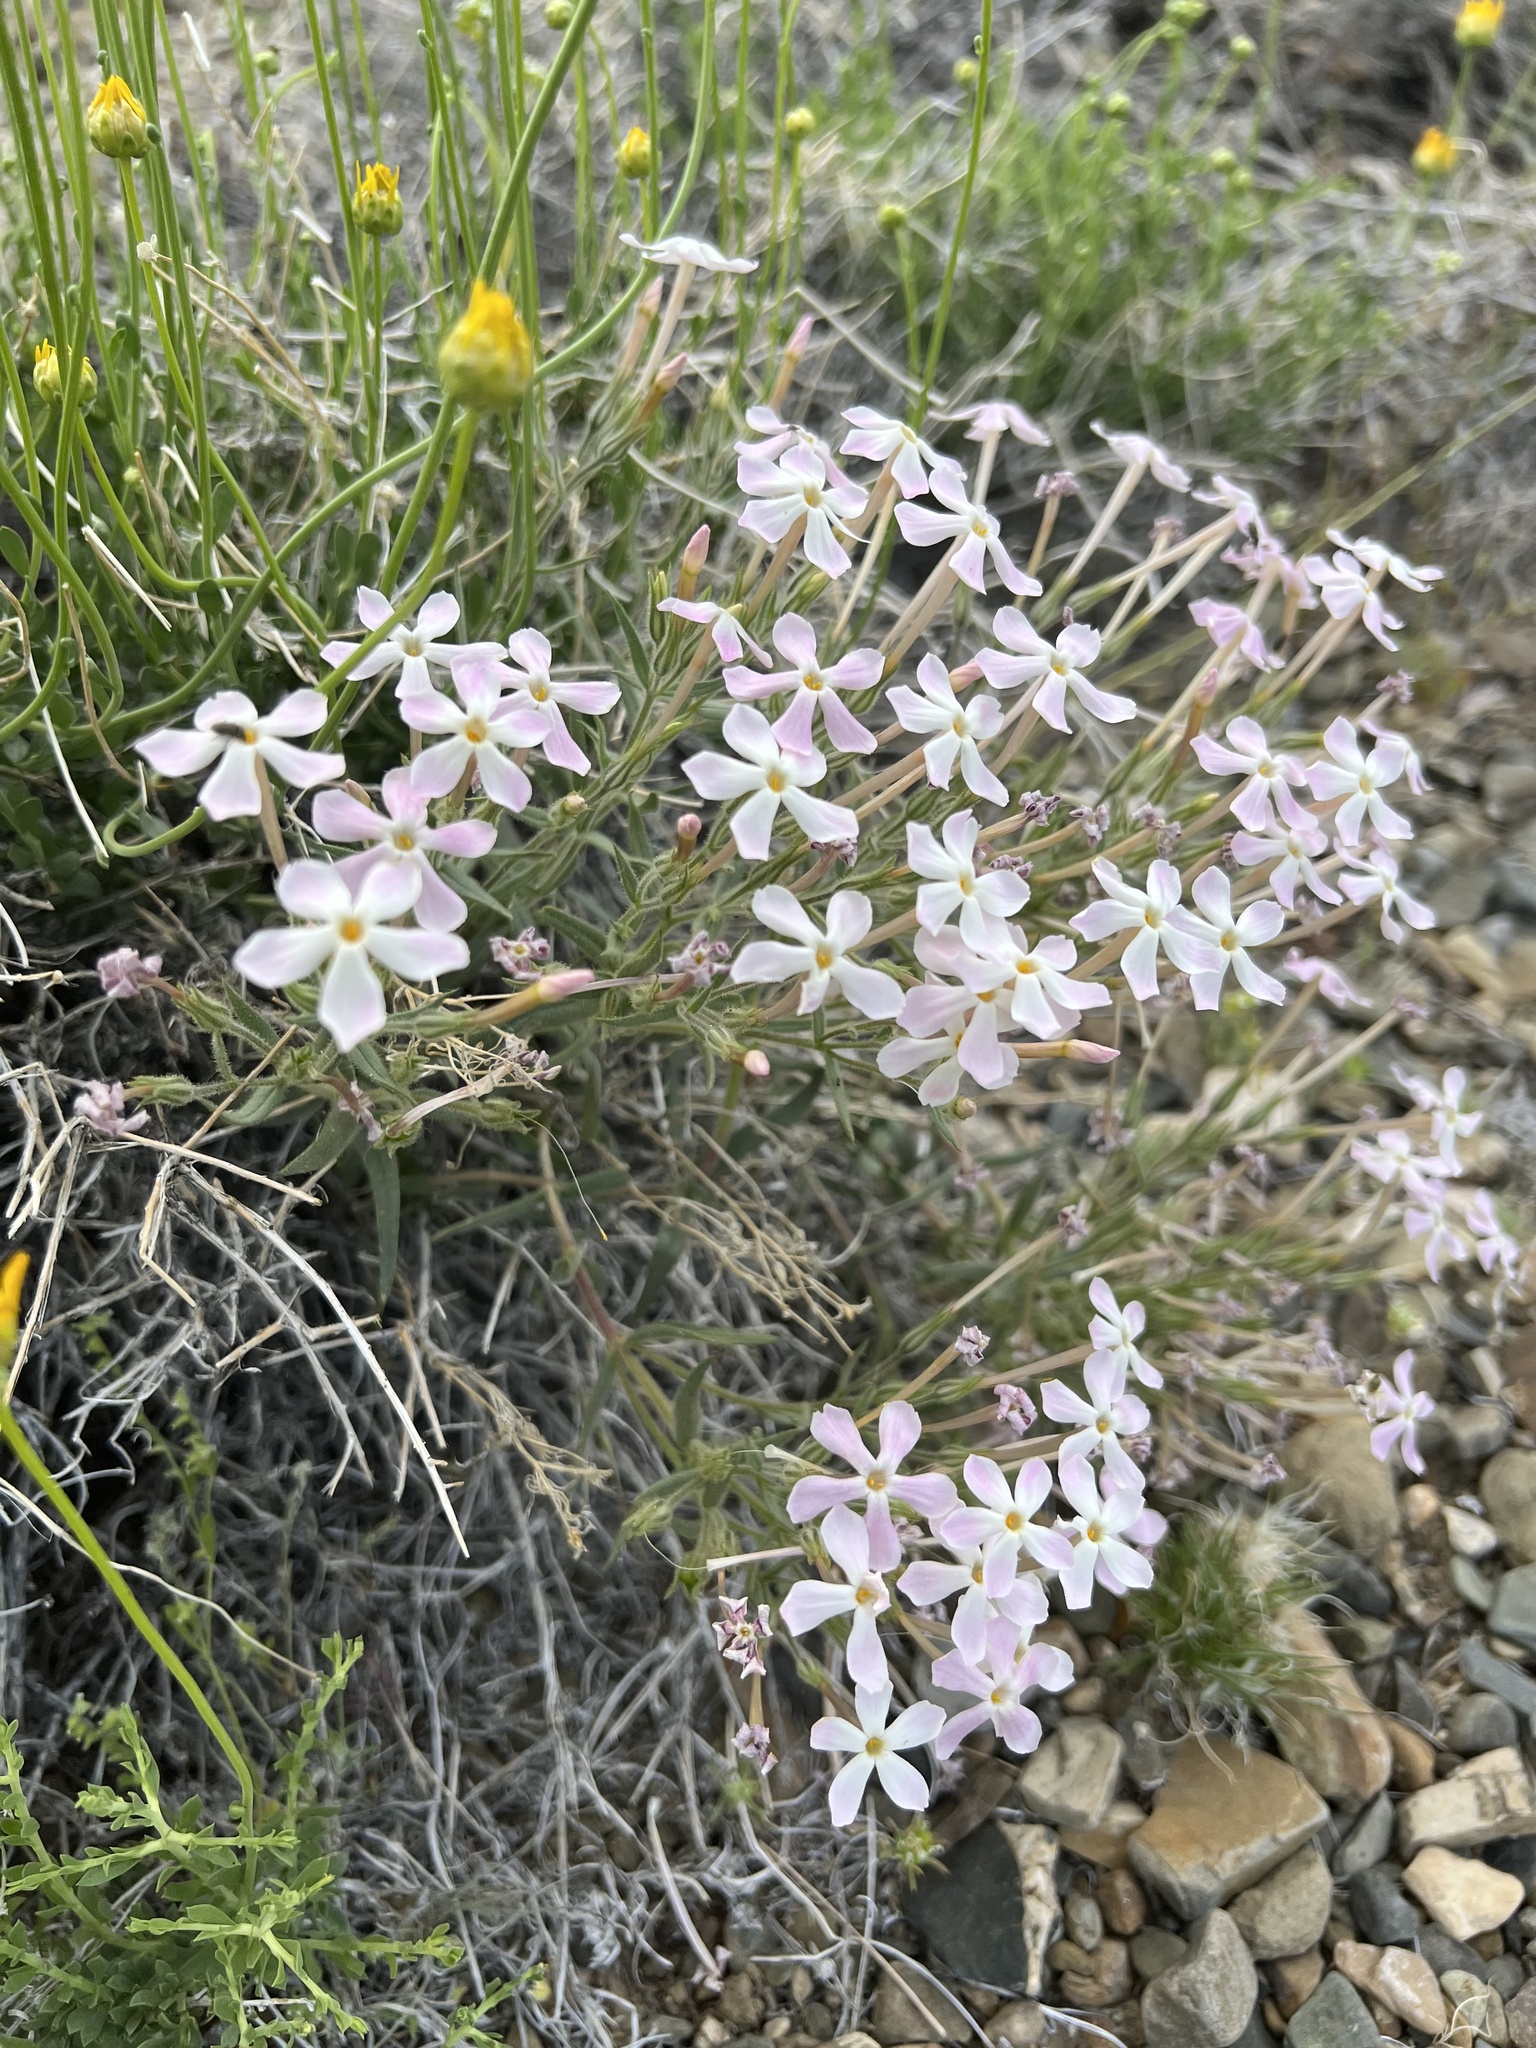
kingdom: Plantae
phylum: Tracheophyta
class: Magnoliopsida
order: Ericales
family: Polemoniaceae
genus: Phlox
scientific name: Phlox longifolia
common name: Longleaf phlox
